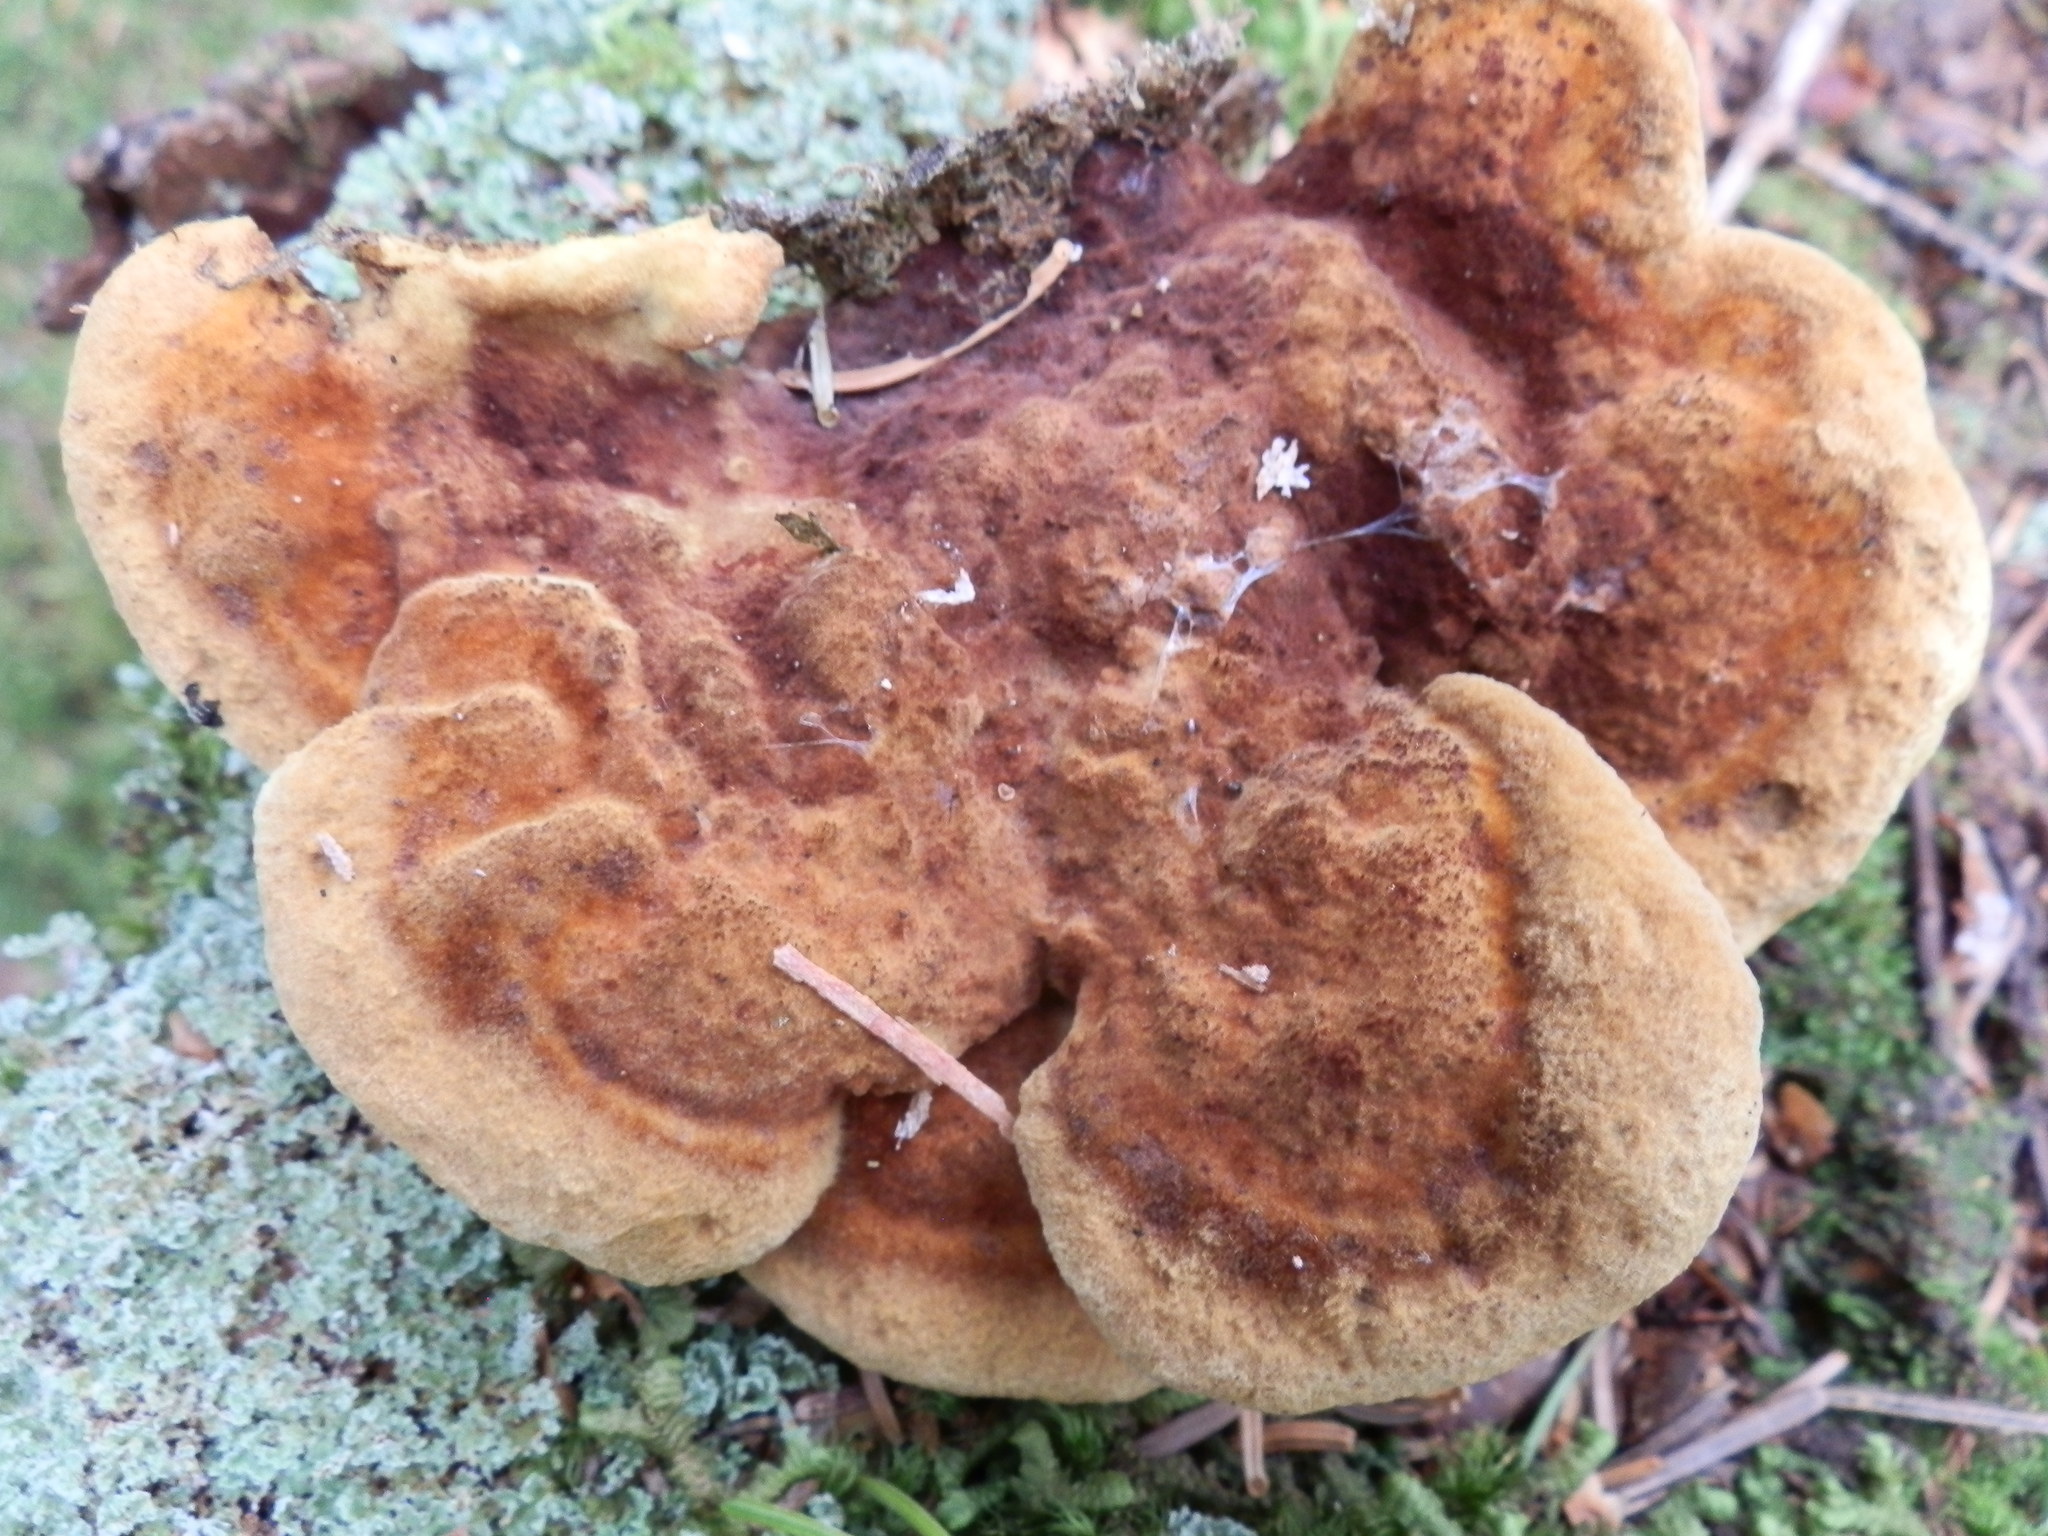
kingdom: Fungi
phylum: Basidiomycota
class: Agaricomycetes
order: Polyporales
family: Laetiporaceae
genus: Phaeolus
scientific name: Phaeolus schweinitzii
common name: Dyer's mazegill
